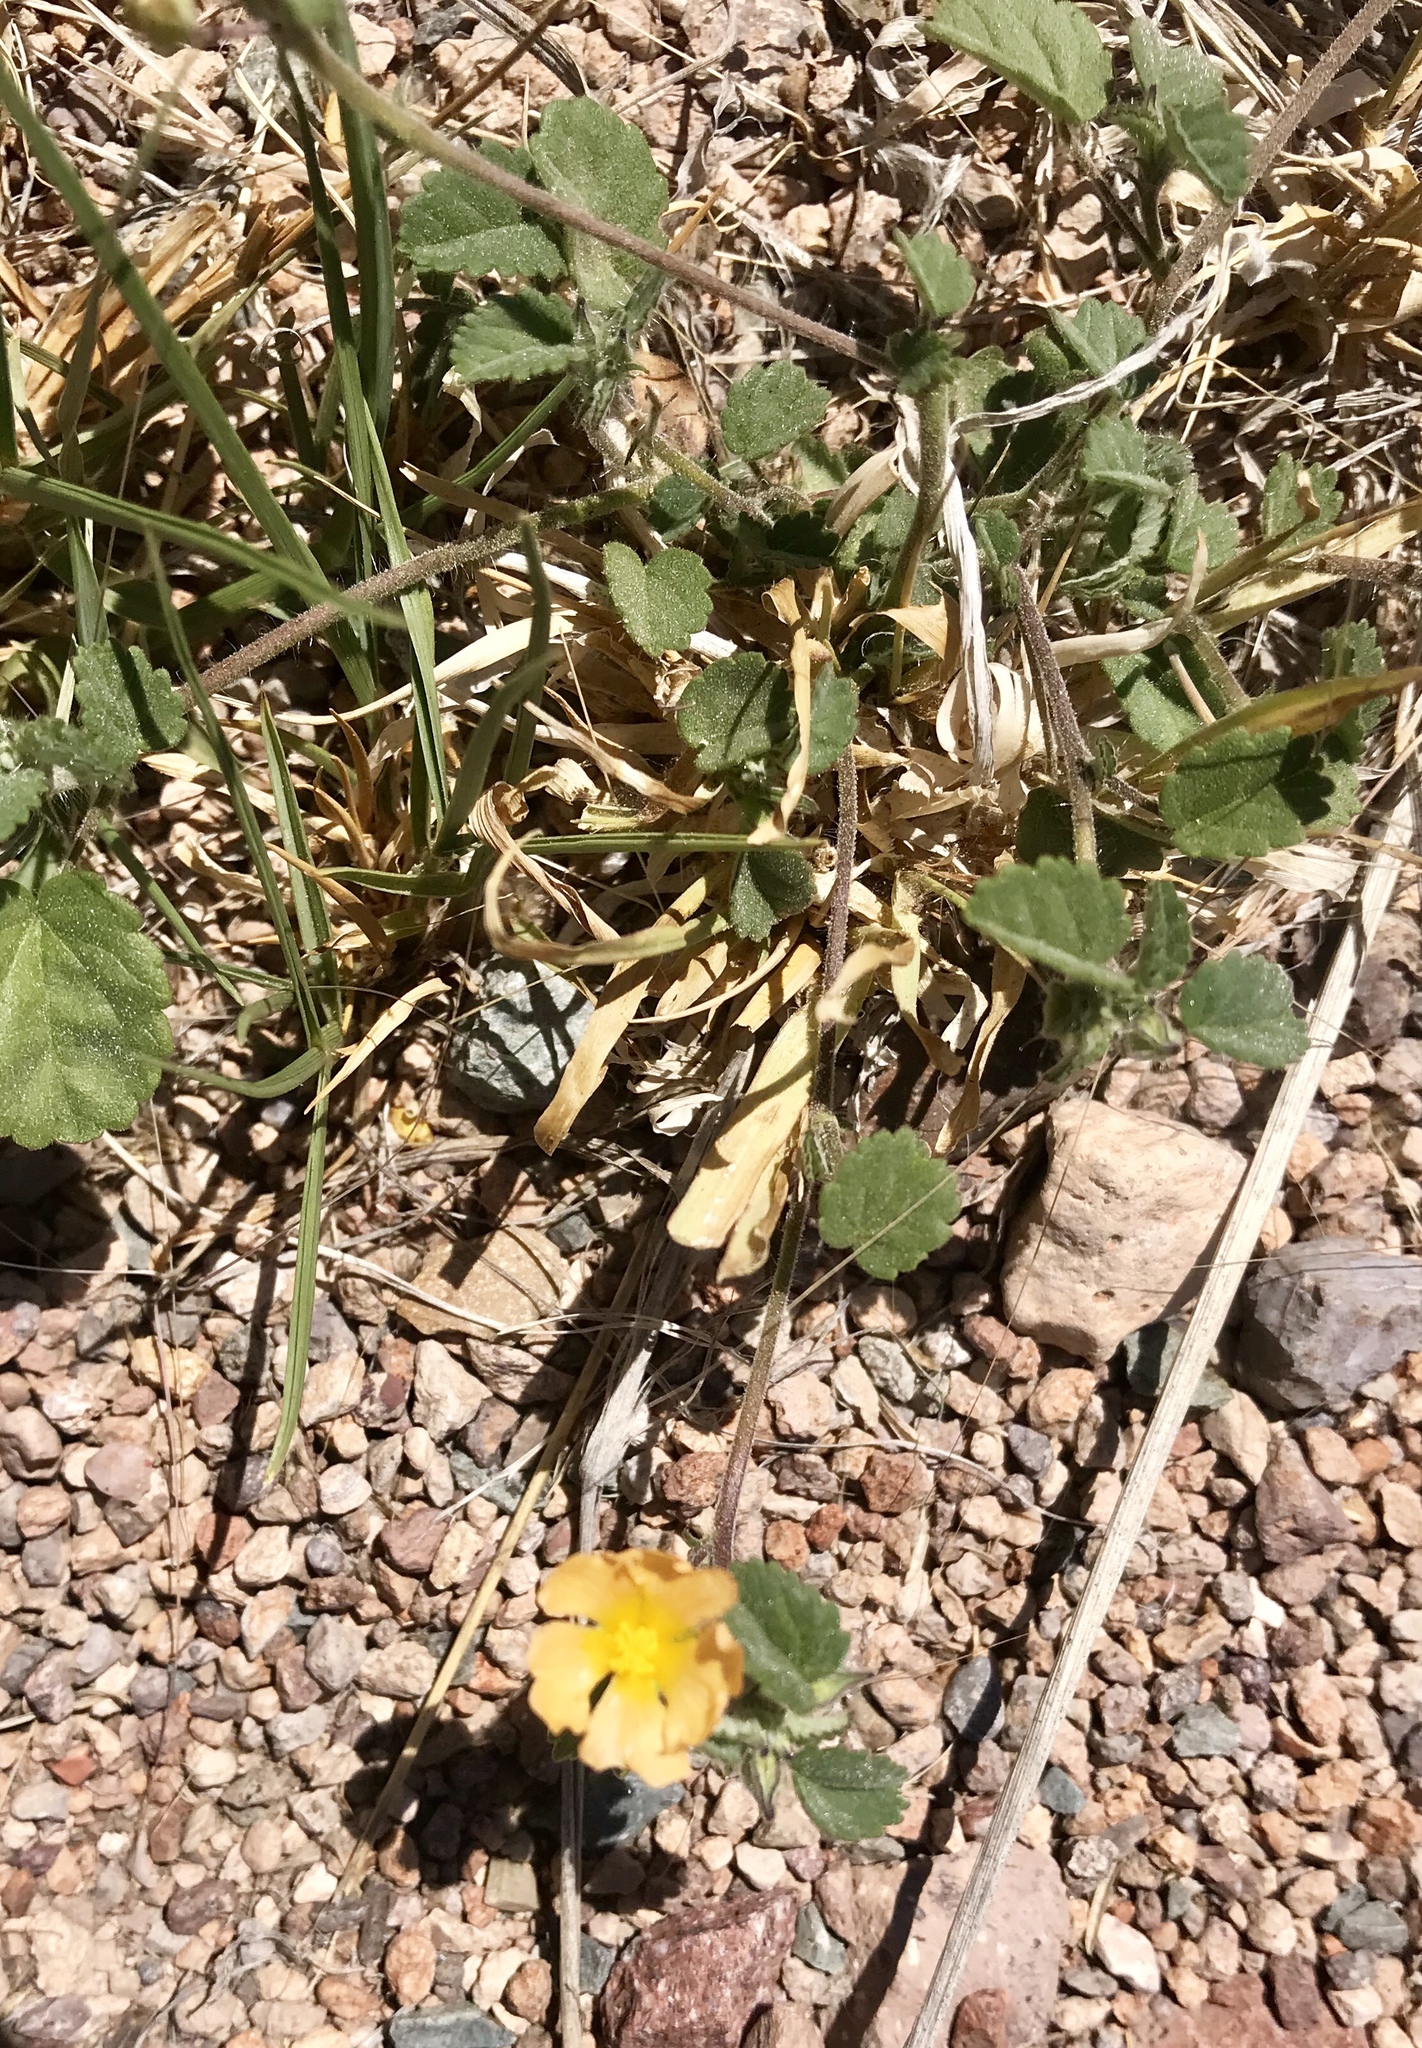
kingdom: Plantae
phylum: Tracheophyta
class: Magnoliopsida
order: Malvales
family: Malvaceae
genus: Sida
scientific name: Sida abutilifolia
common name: Spreading fanpetals
